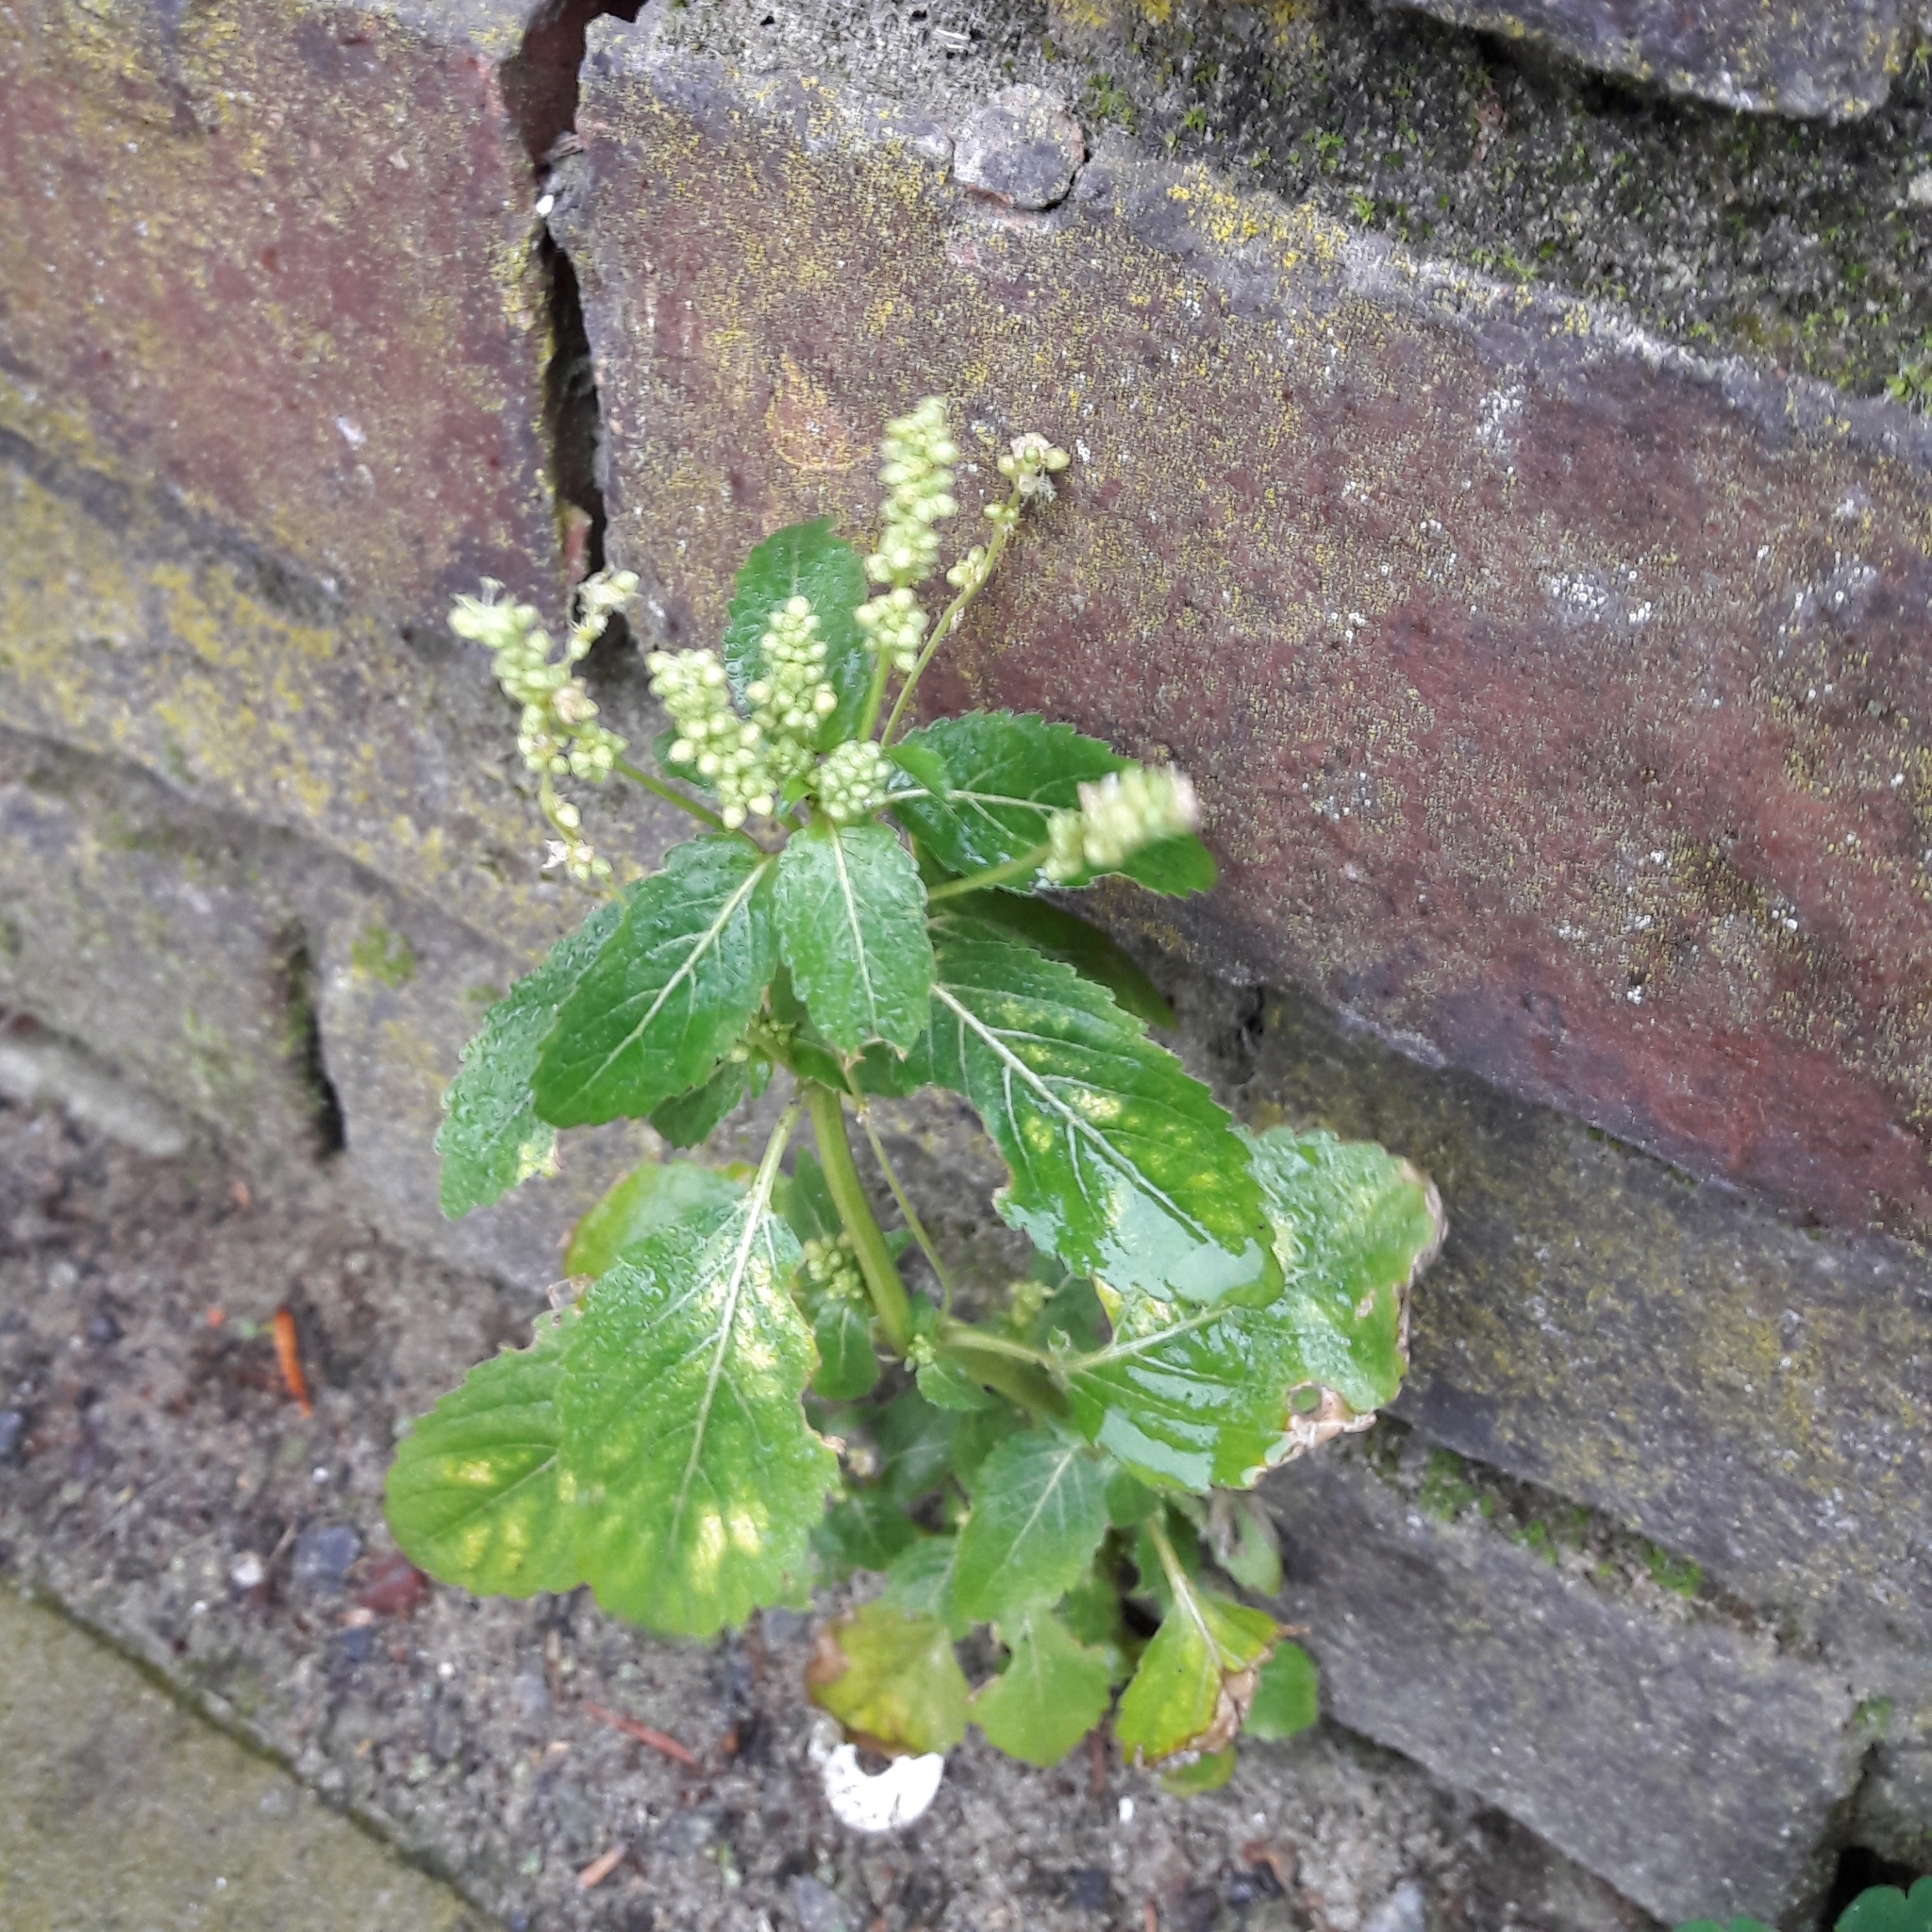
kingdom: Plantae
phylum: Tracheophyta
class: Magnoliopsida
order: Malpighiales
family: Euphorbiaceae
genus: Mercurialis
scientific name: Mercurialis annua
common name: Annual mercury
